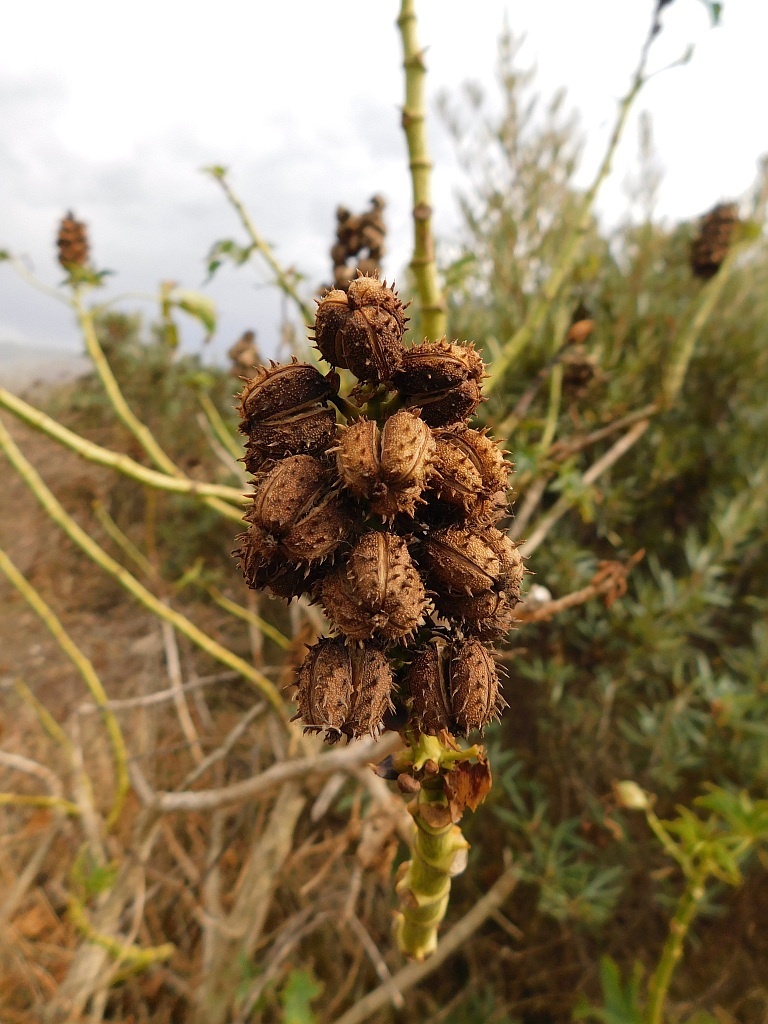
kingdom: Plantae
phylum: Tracheophyta
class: Magnoliopsida
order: Malpighiales
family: Euphorbiaceae
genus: Ricinus
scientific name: Ricinus communis
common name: Castor-oil-plant
